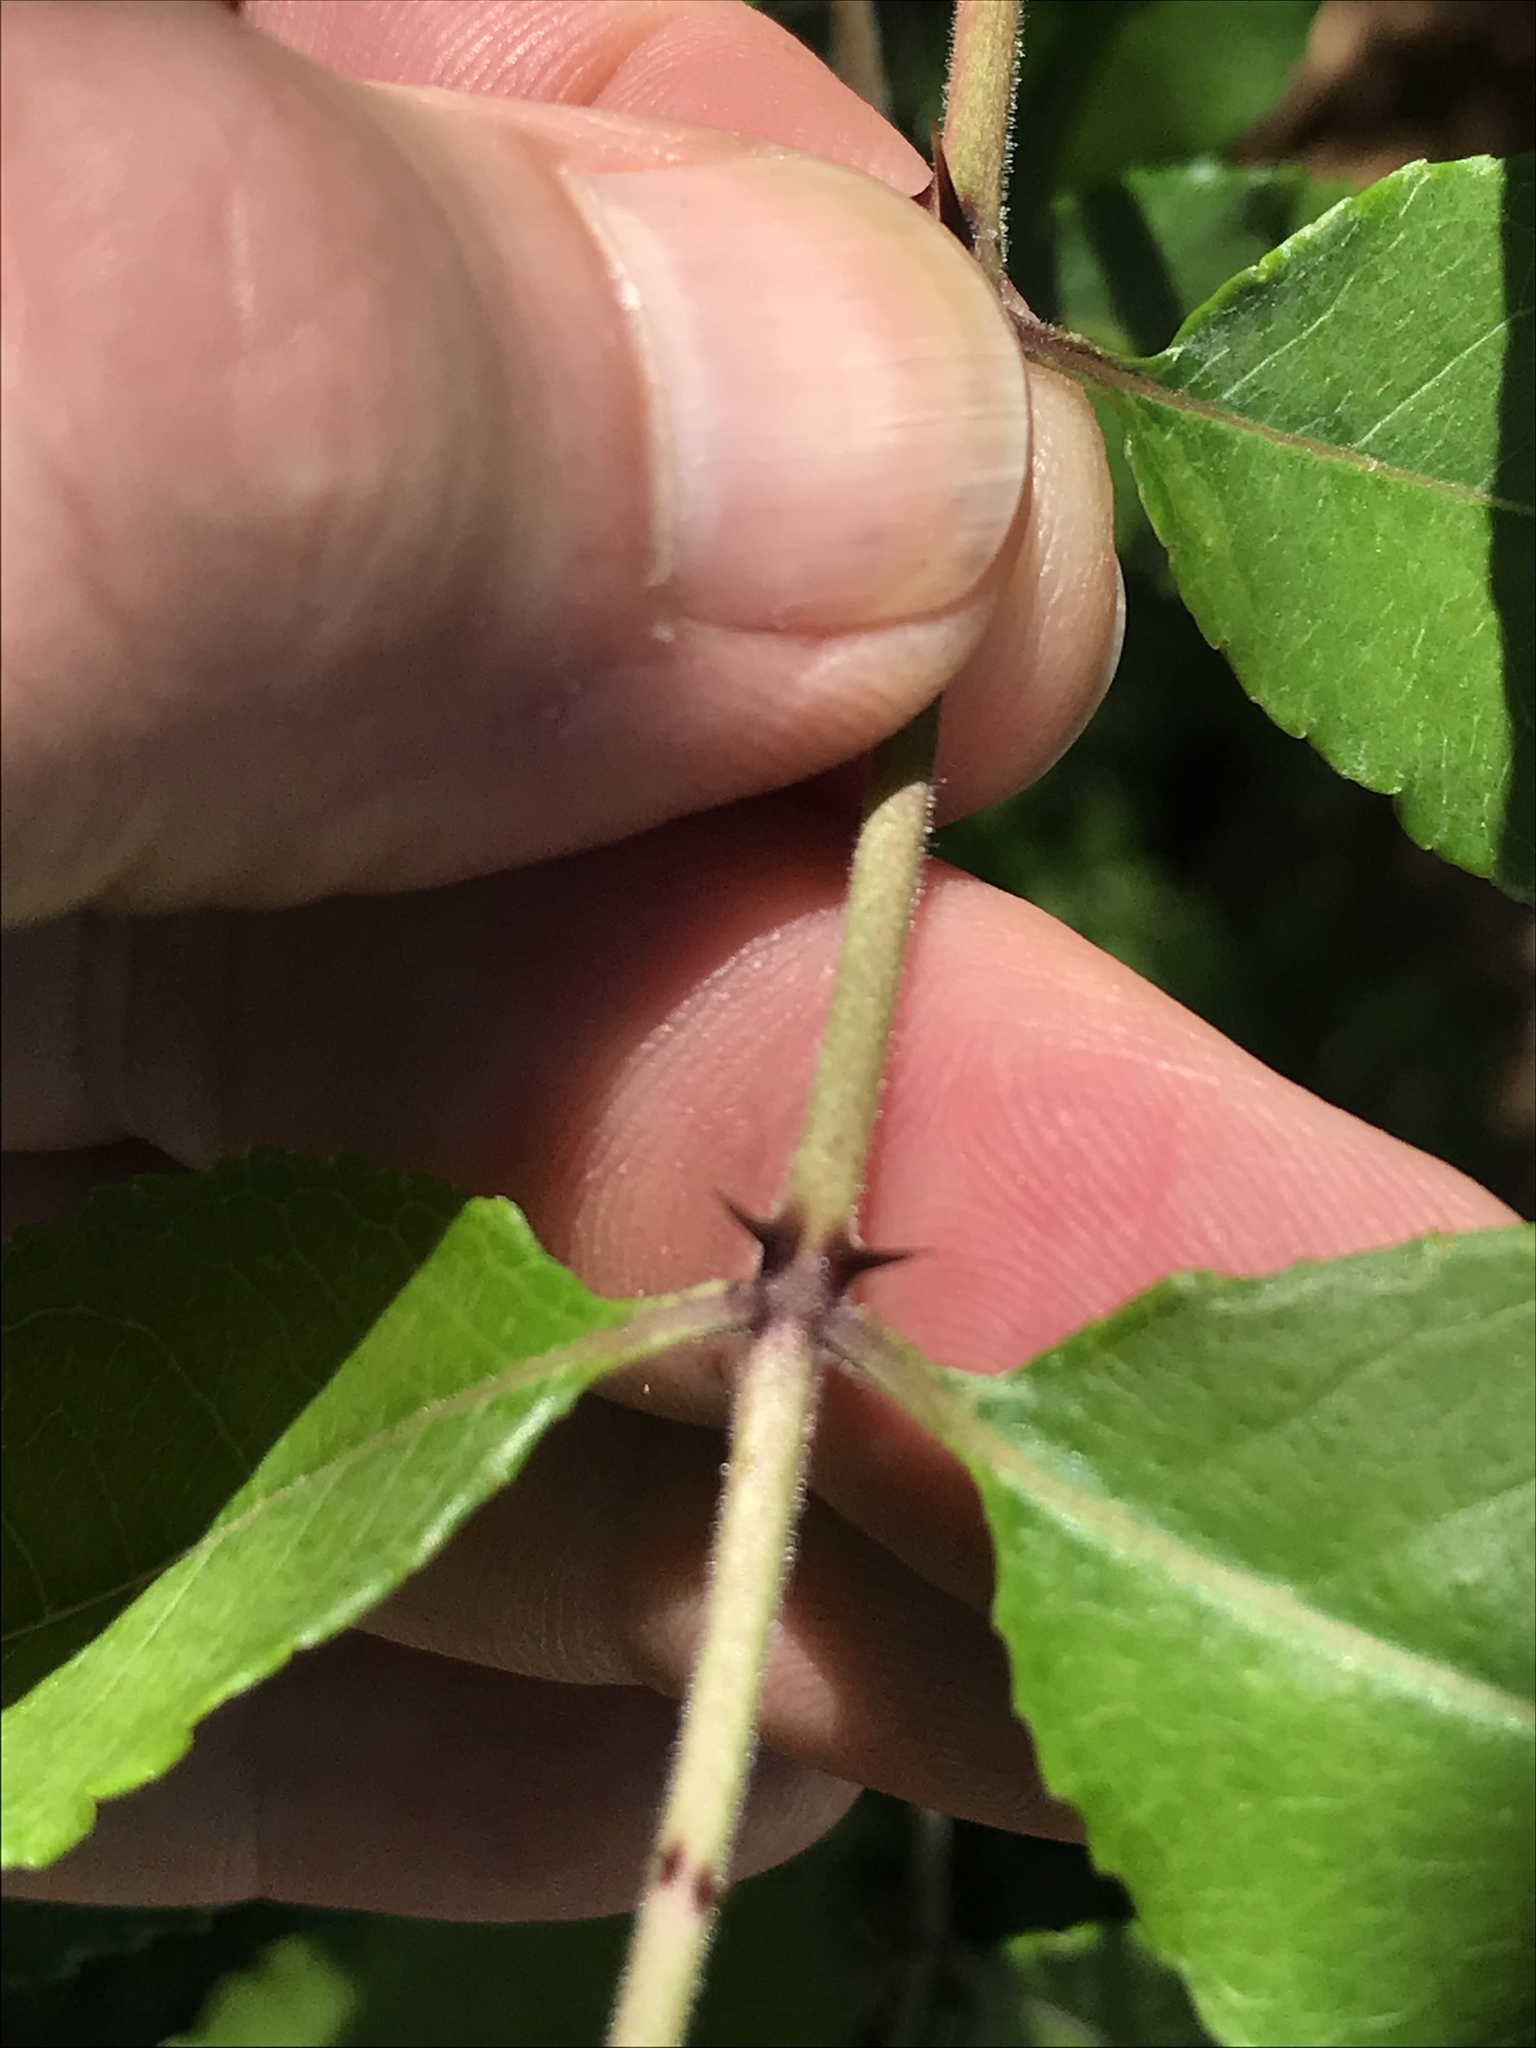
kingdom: Plantae
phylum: Tracheophyta
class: Magnoliopsida
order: Sapindales
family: Rutaceae
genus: Zanthoxylum
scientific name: Zanthoxylum clava-herculis
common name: Hercules'-club
